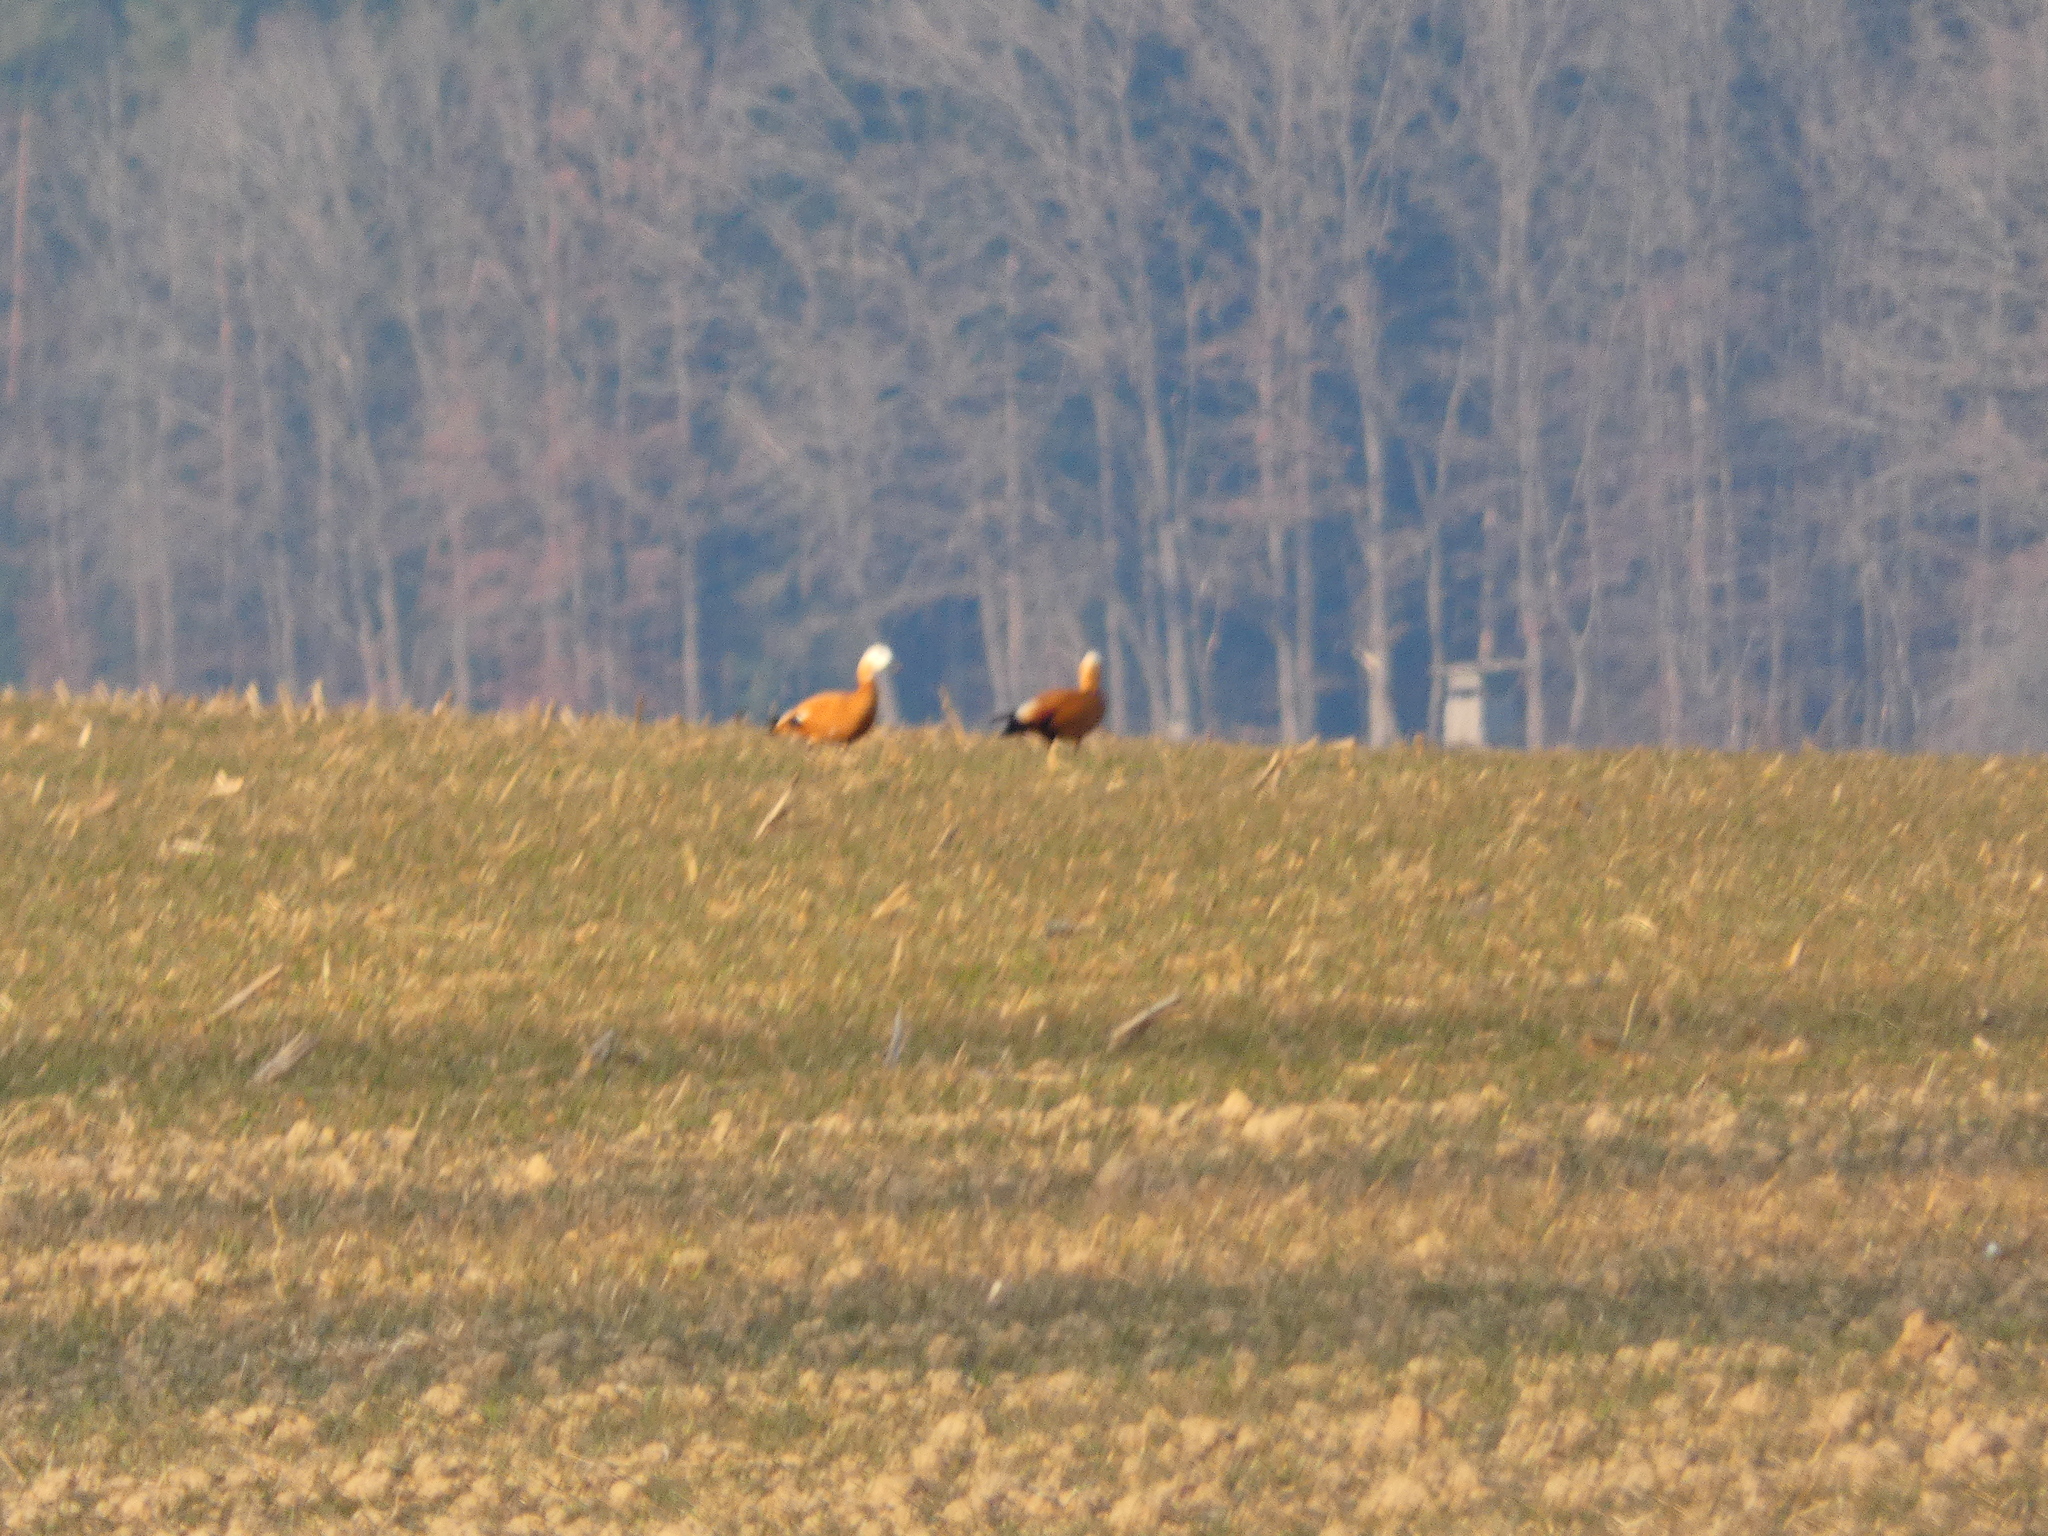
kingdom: Animalia
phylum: Chordata
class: Aves
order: Anseriformes
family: Anatidae
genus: Tadorna
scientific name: Tadorna ferruginea
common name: Ruddy shelduck
